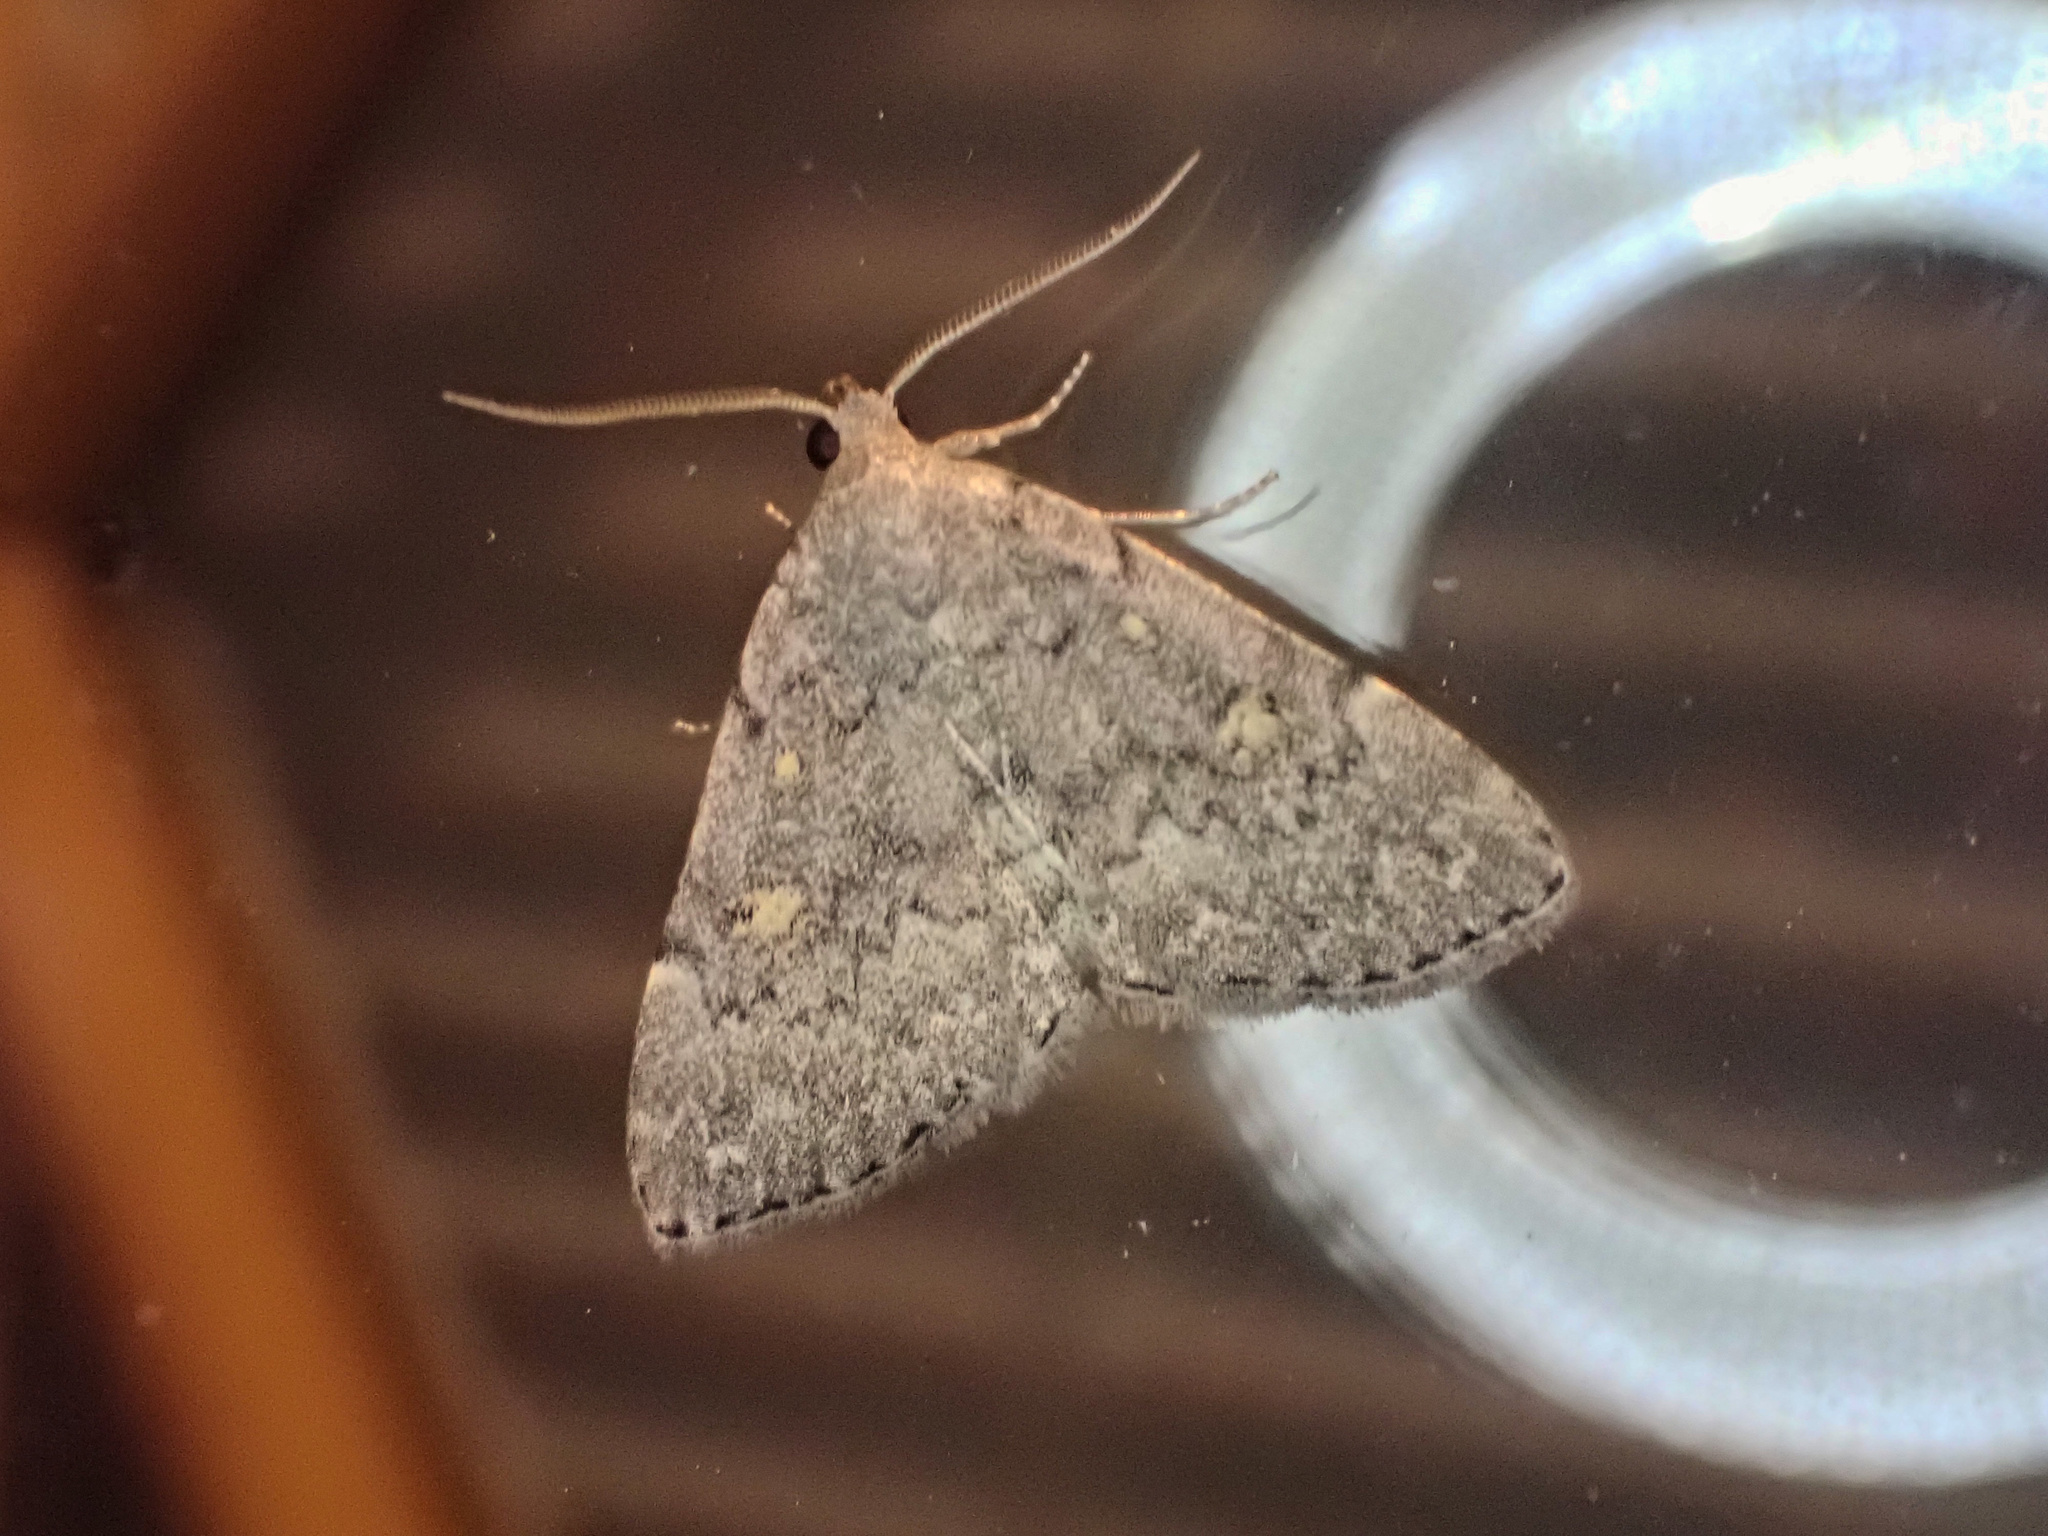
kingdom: Animalia
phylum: Arthropoda
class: Insecta
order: Lepidoptera
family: Erebidae
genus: Idia
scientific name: Idia aemula
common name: Common idia moth
